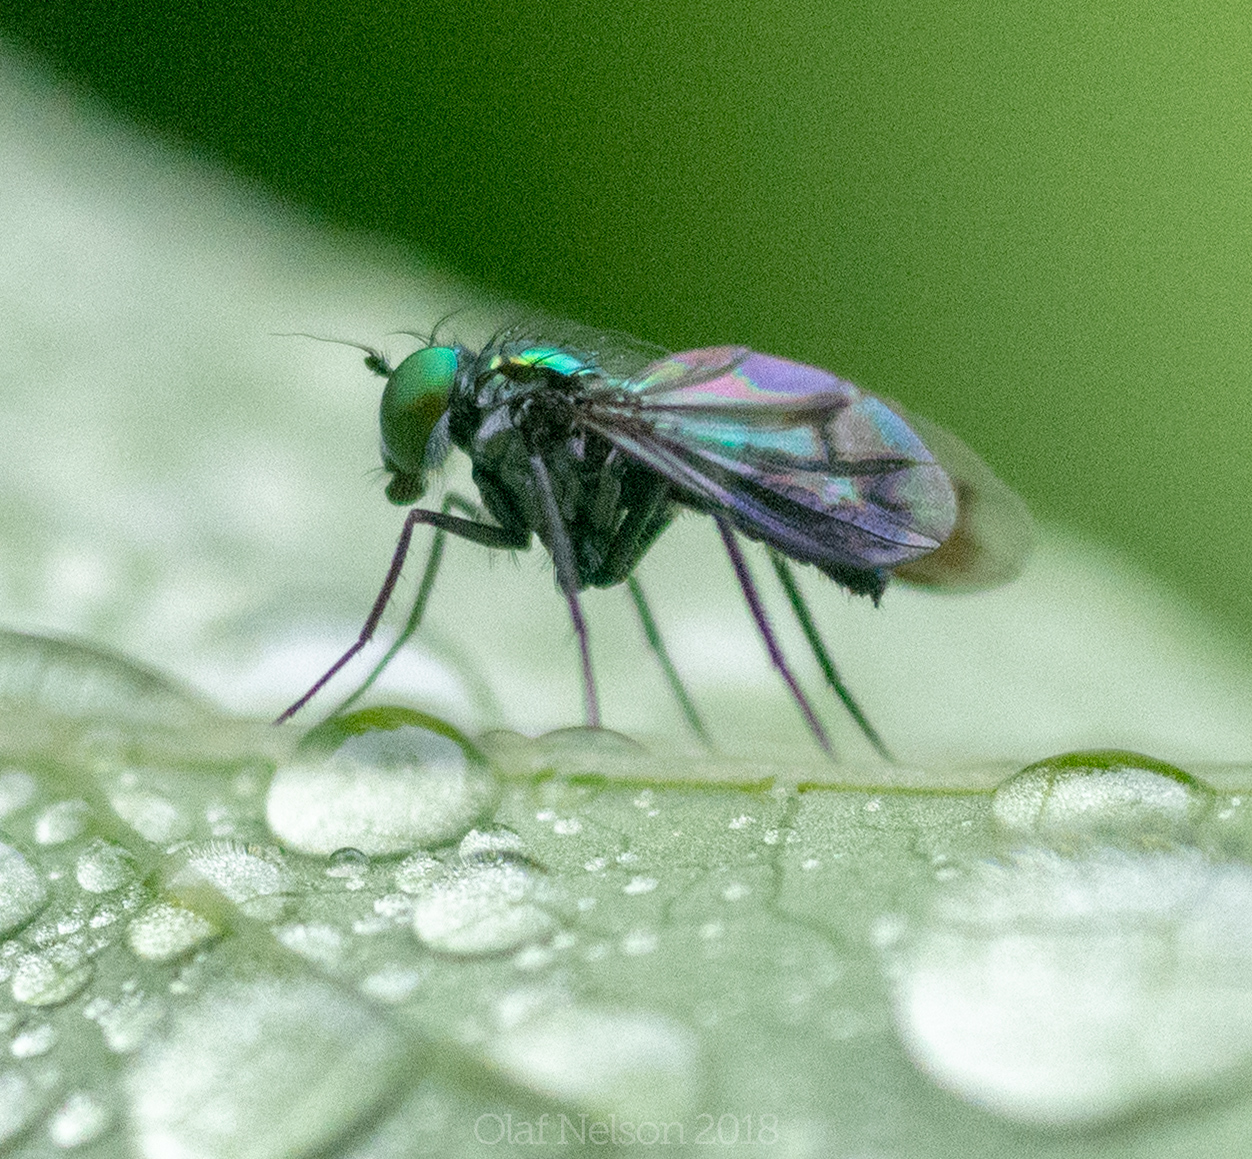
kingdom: Animalia
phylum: Arthropoda
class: Insecta
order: Diptera
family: Dolichopodidae
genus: Condylostylus
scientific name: Condylostylus patibulatus
